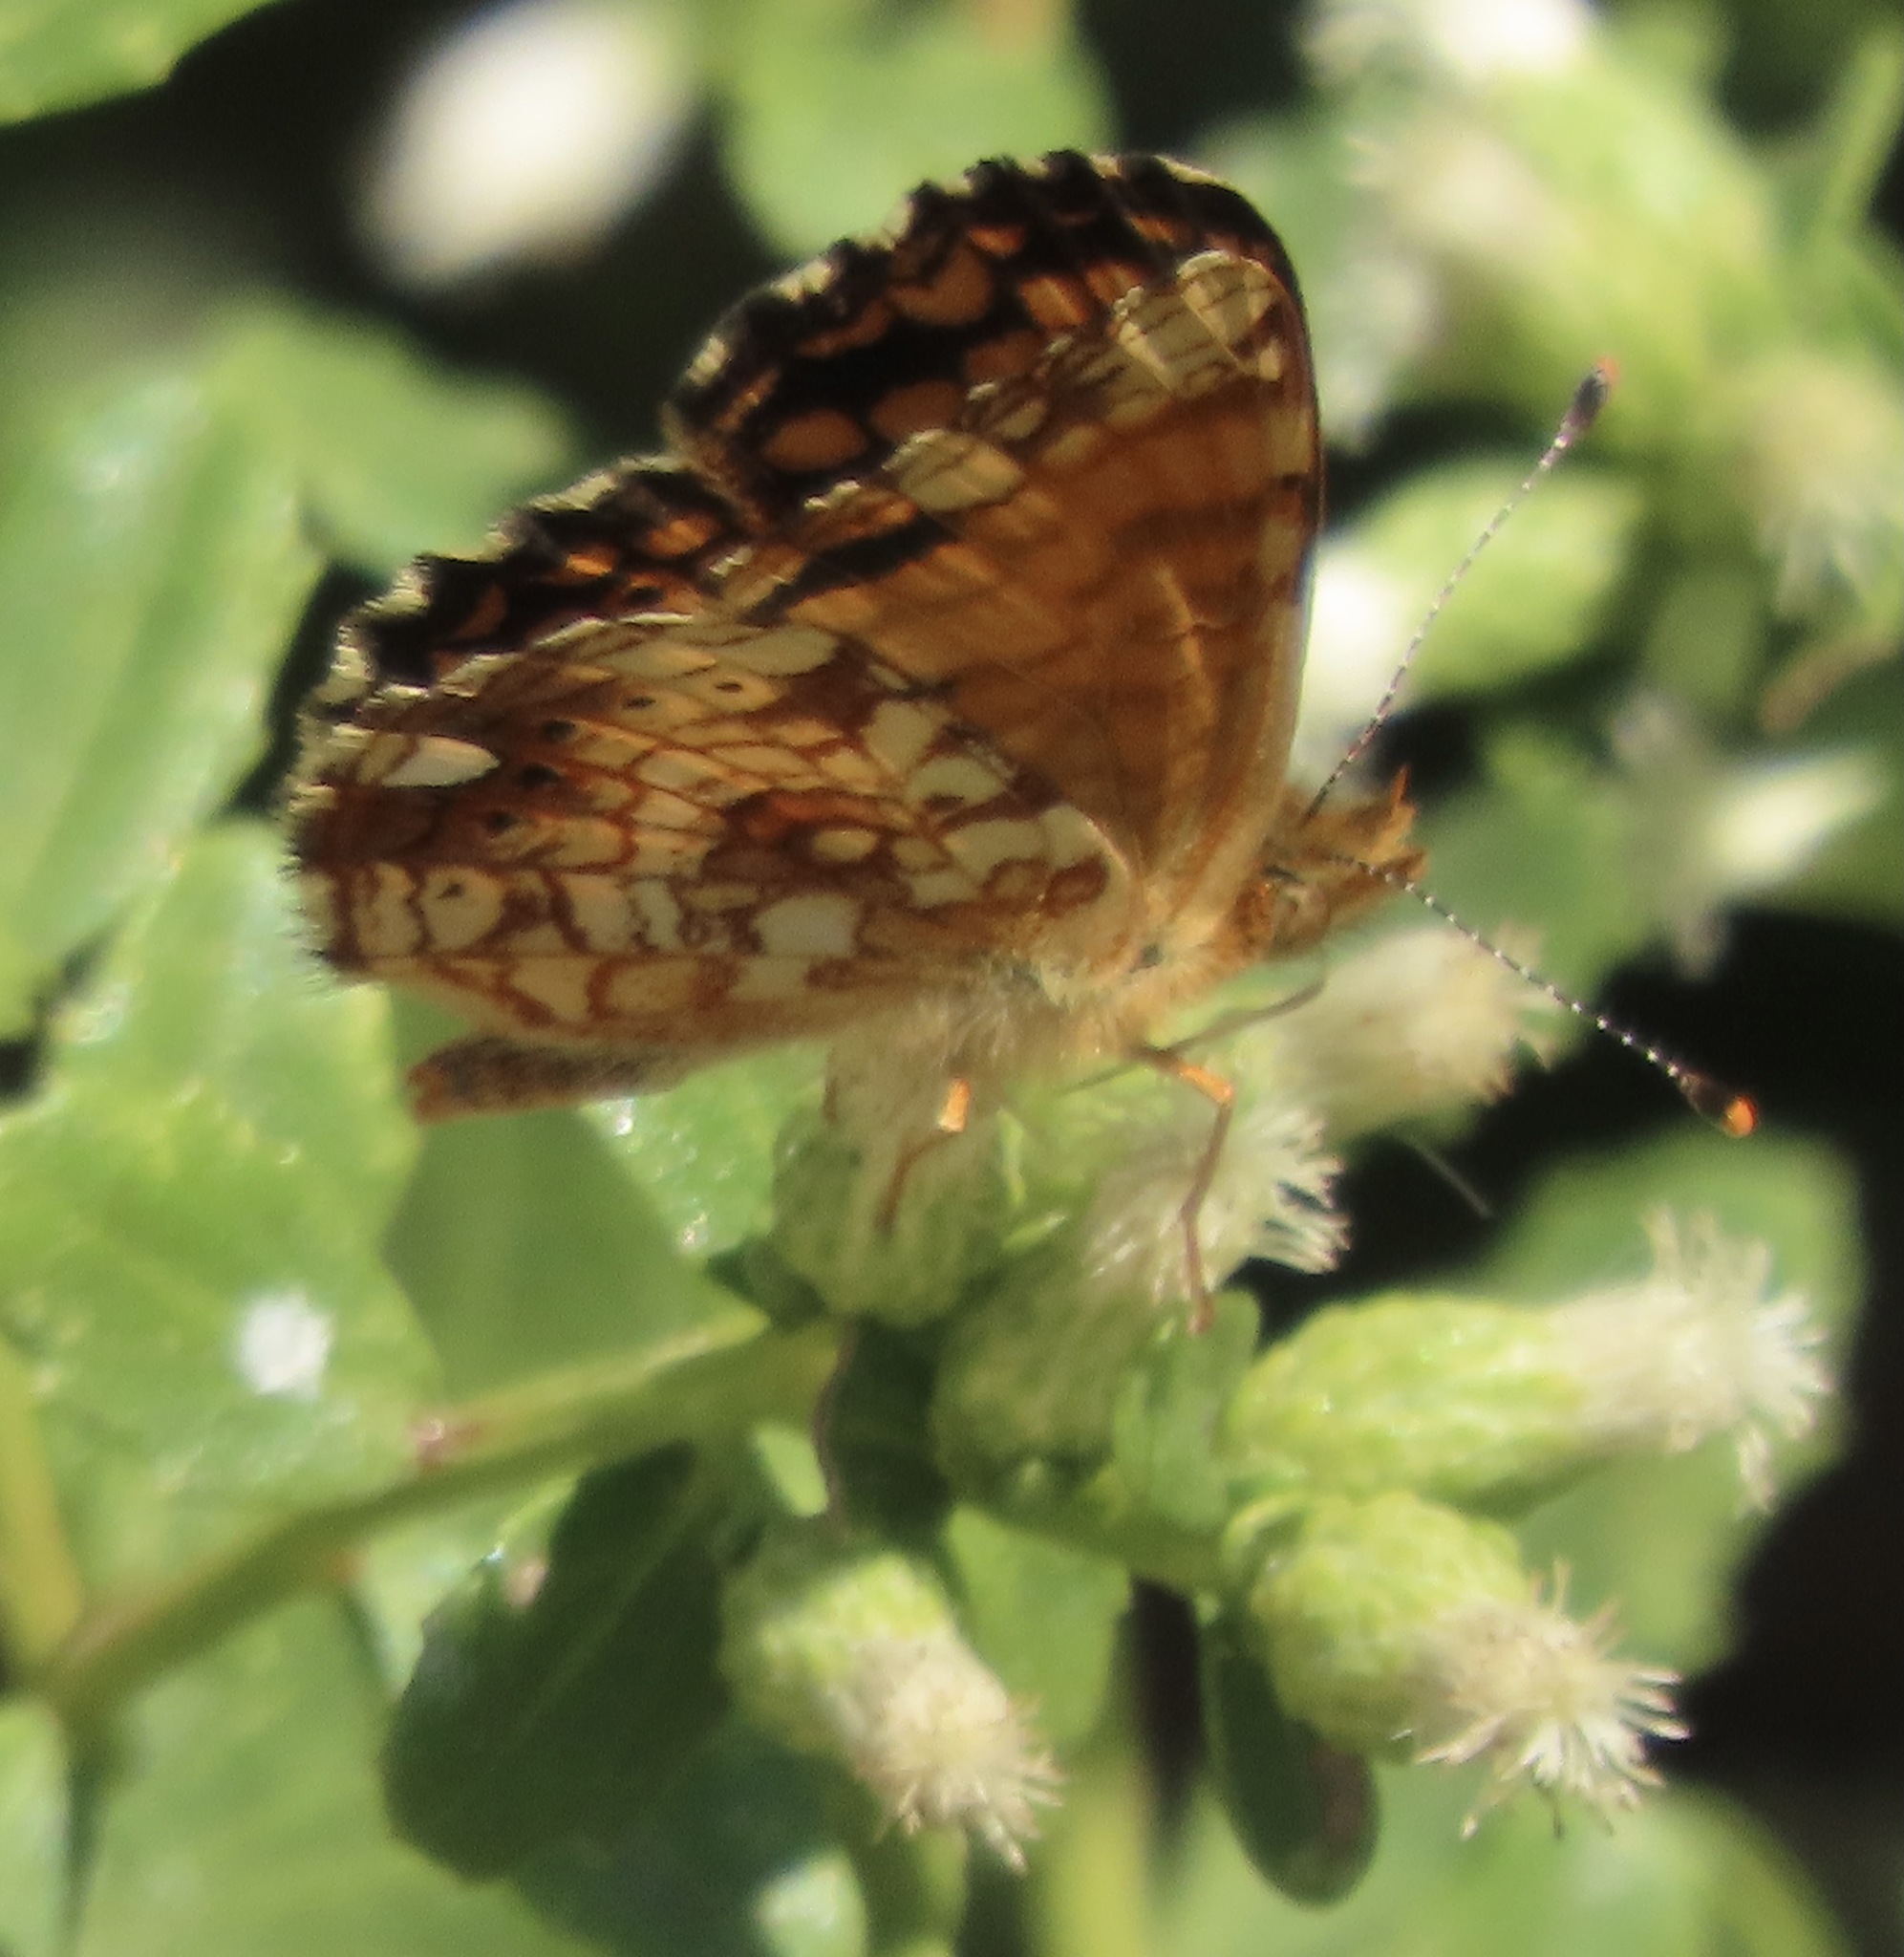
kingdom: Animalia
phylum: Arthropoda
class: Insecta
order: Lepidoptera
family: Nymphalidae
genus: Eresia
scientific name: Eresia aveyrona
